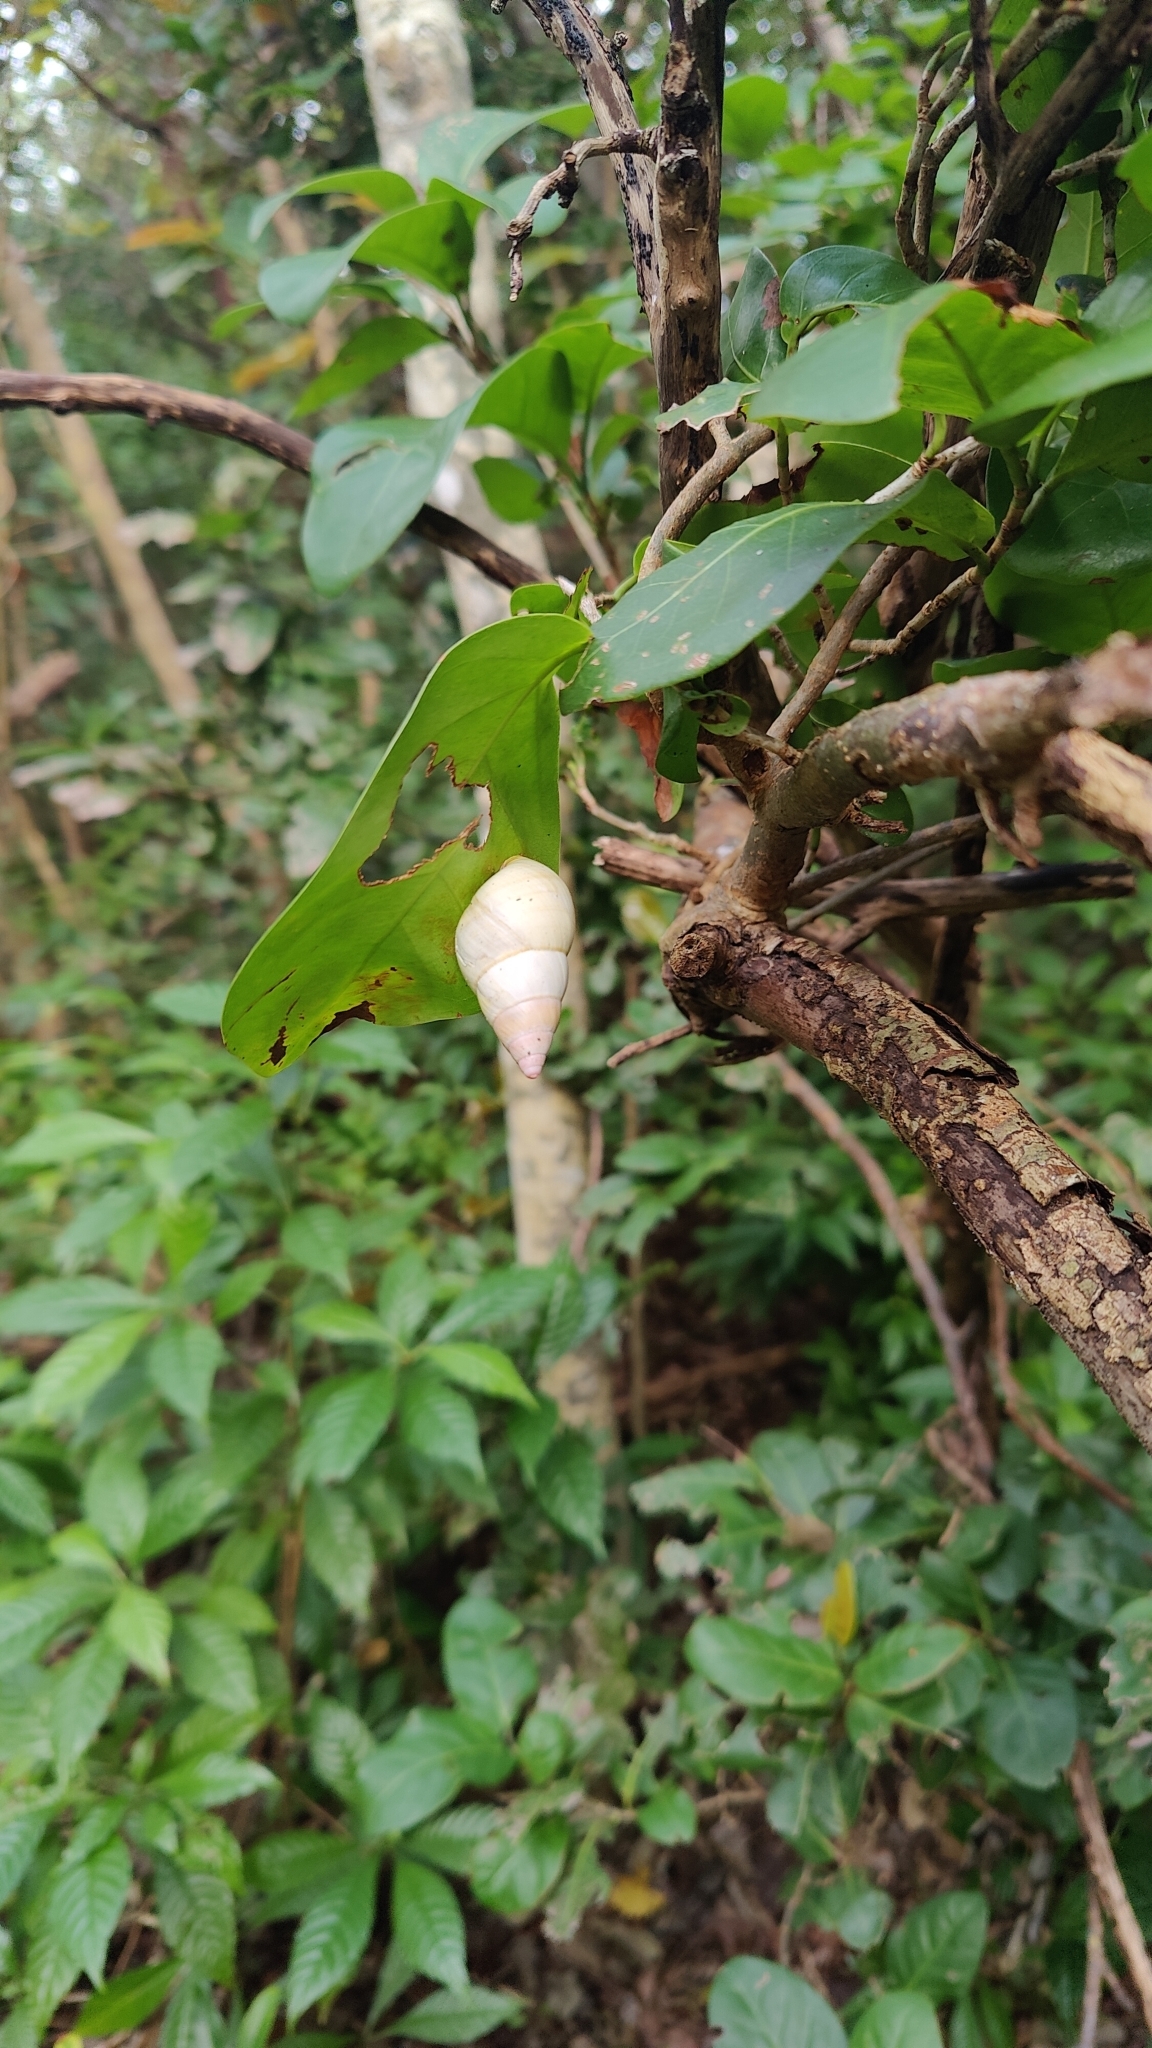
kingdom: Animalia
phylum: Mollusca
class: Gastropoda
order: Stylommatophora
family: Orthalicidae
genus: Liguus
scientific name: Liguus fasciatus
